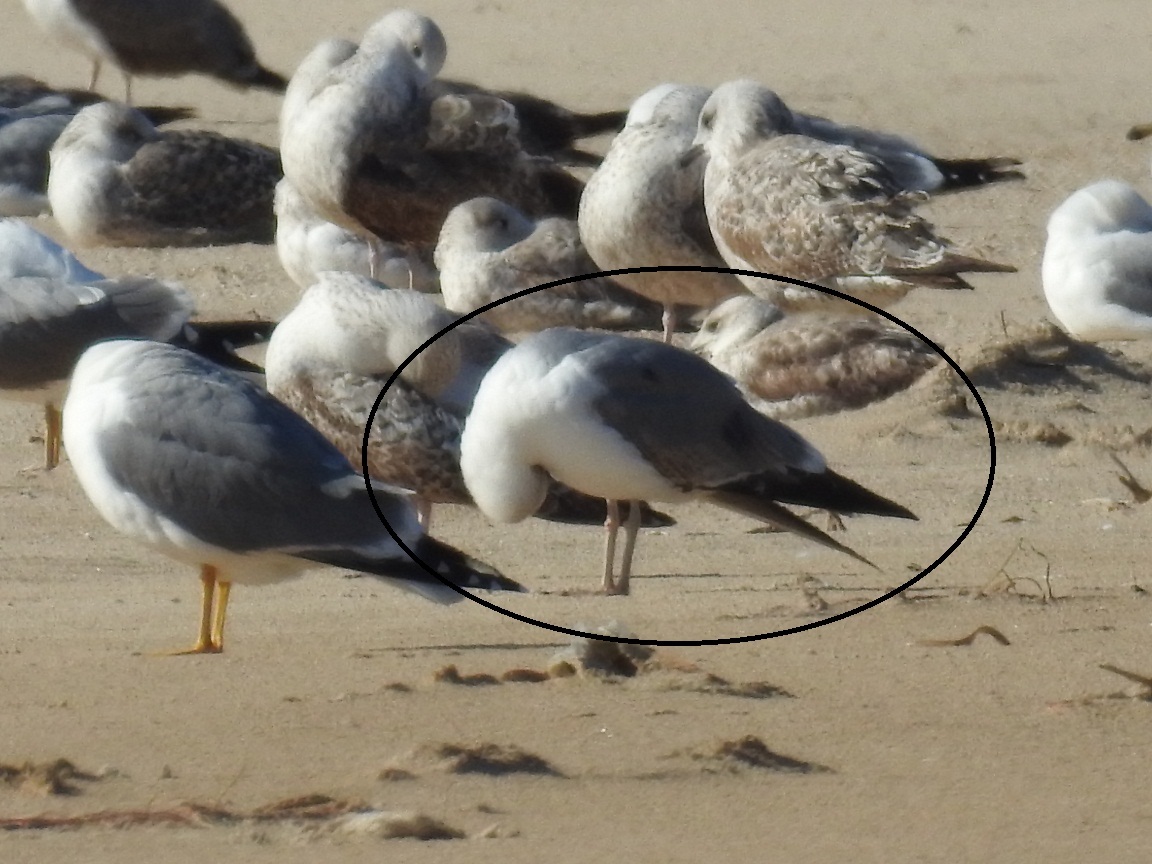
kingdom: Animalia
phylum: Chordata
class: Aves
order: Charadriiformes
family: Laridae
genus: Larus
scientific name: Larus michahellis
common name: Yellow-legged gull
